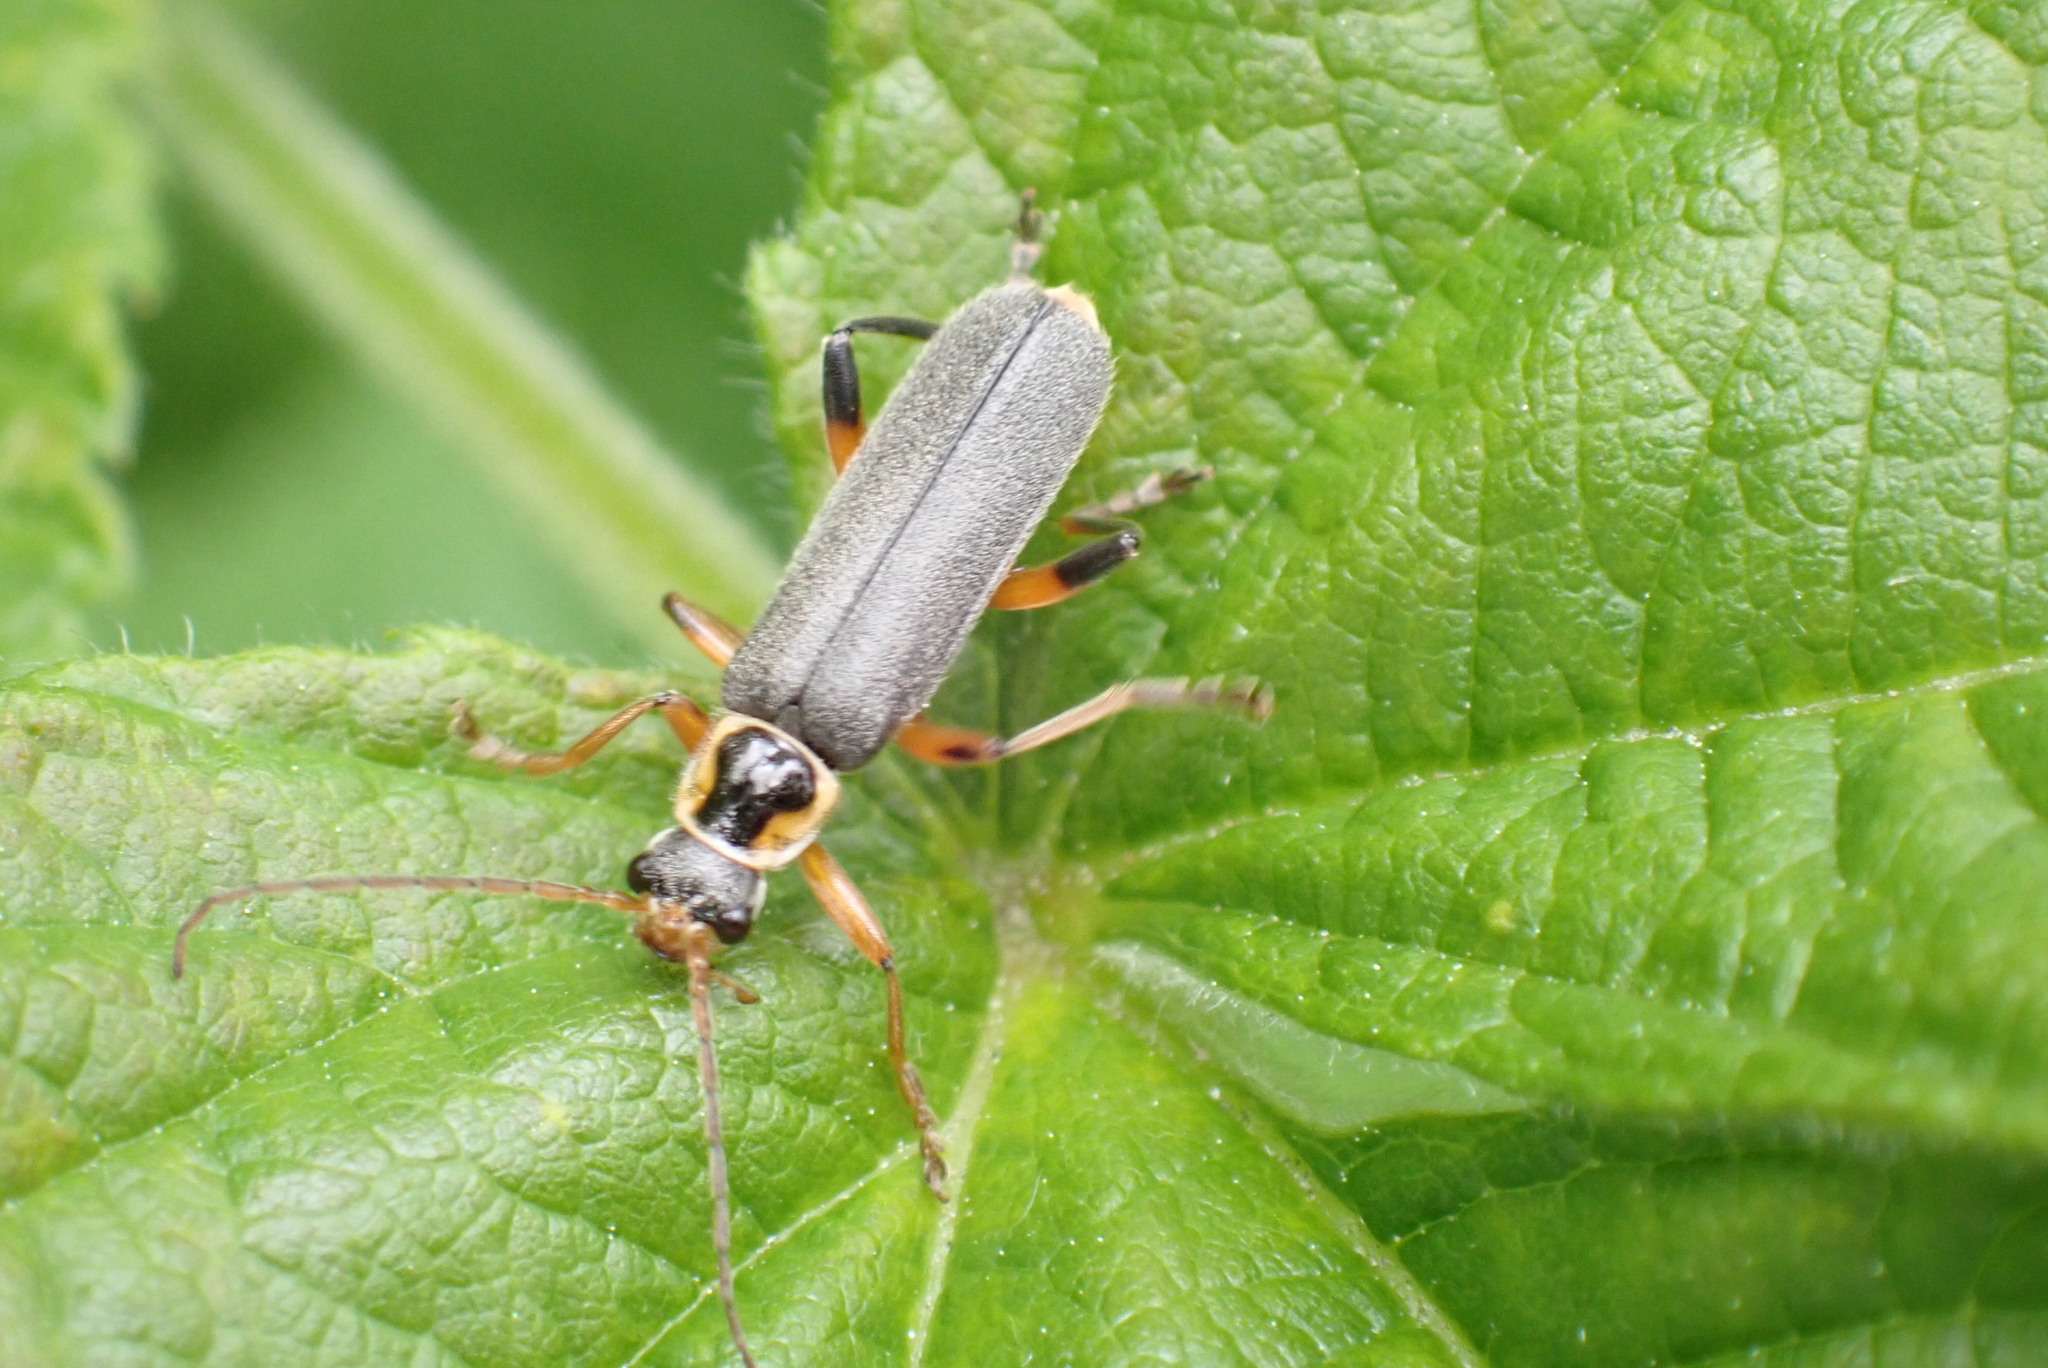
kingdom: Animalia
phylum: Arthropoda
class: Insecta
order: Coleoptera
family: Cantharidae
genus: Cantharis
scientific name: Cantharis nigricans
